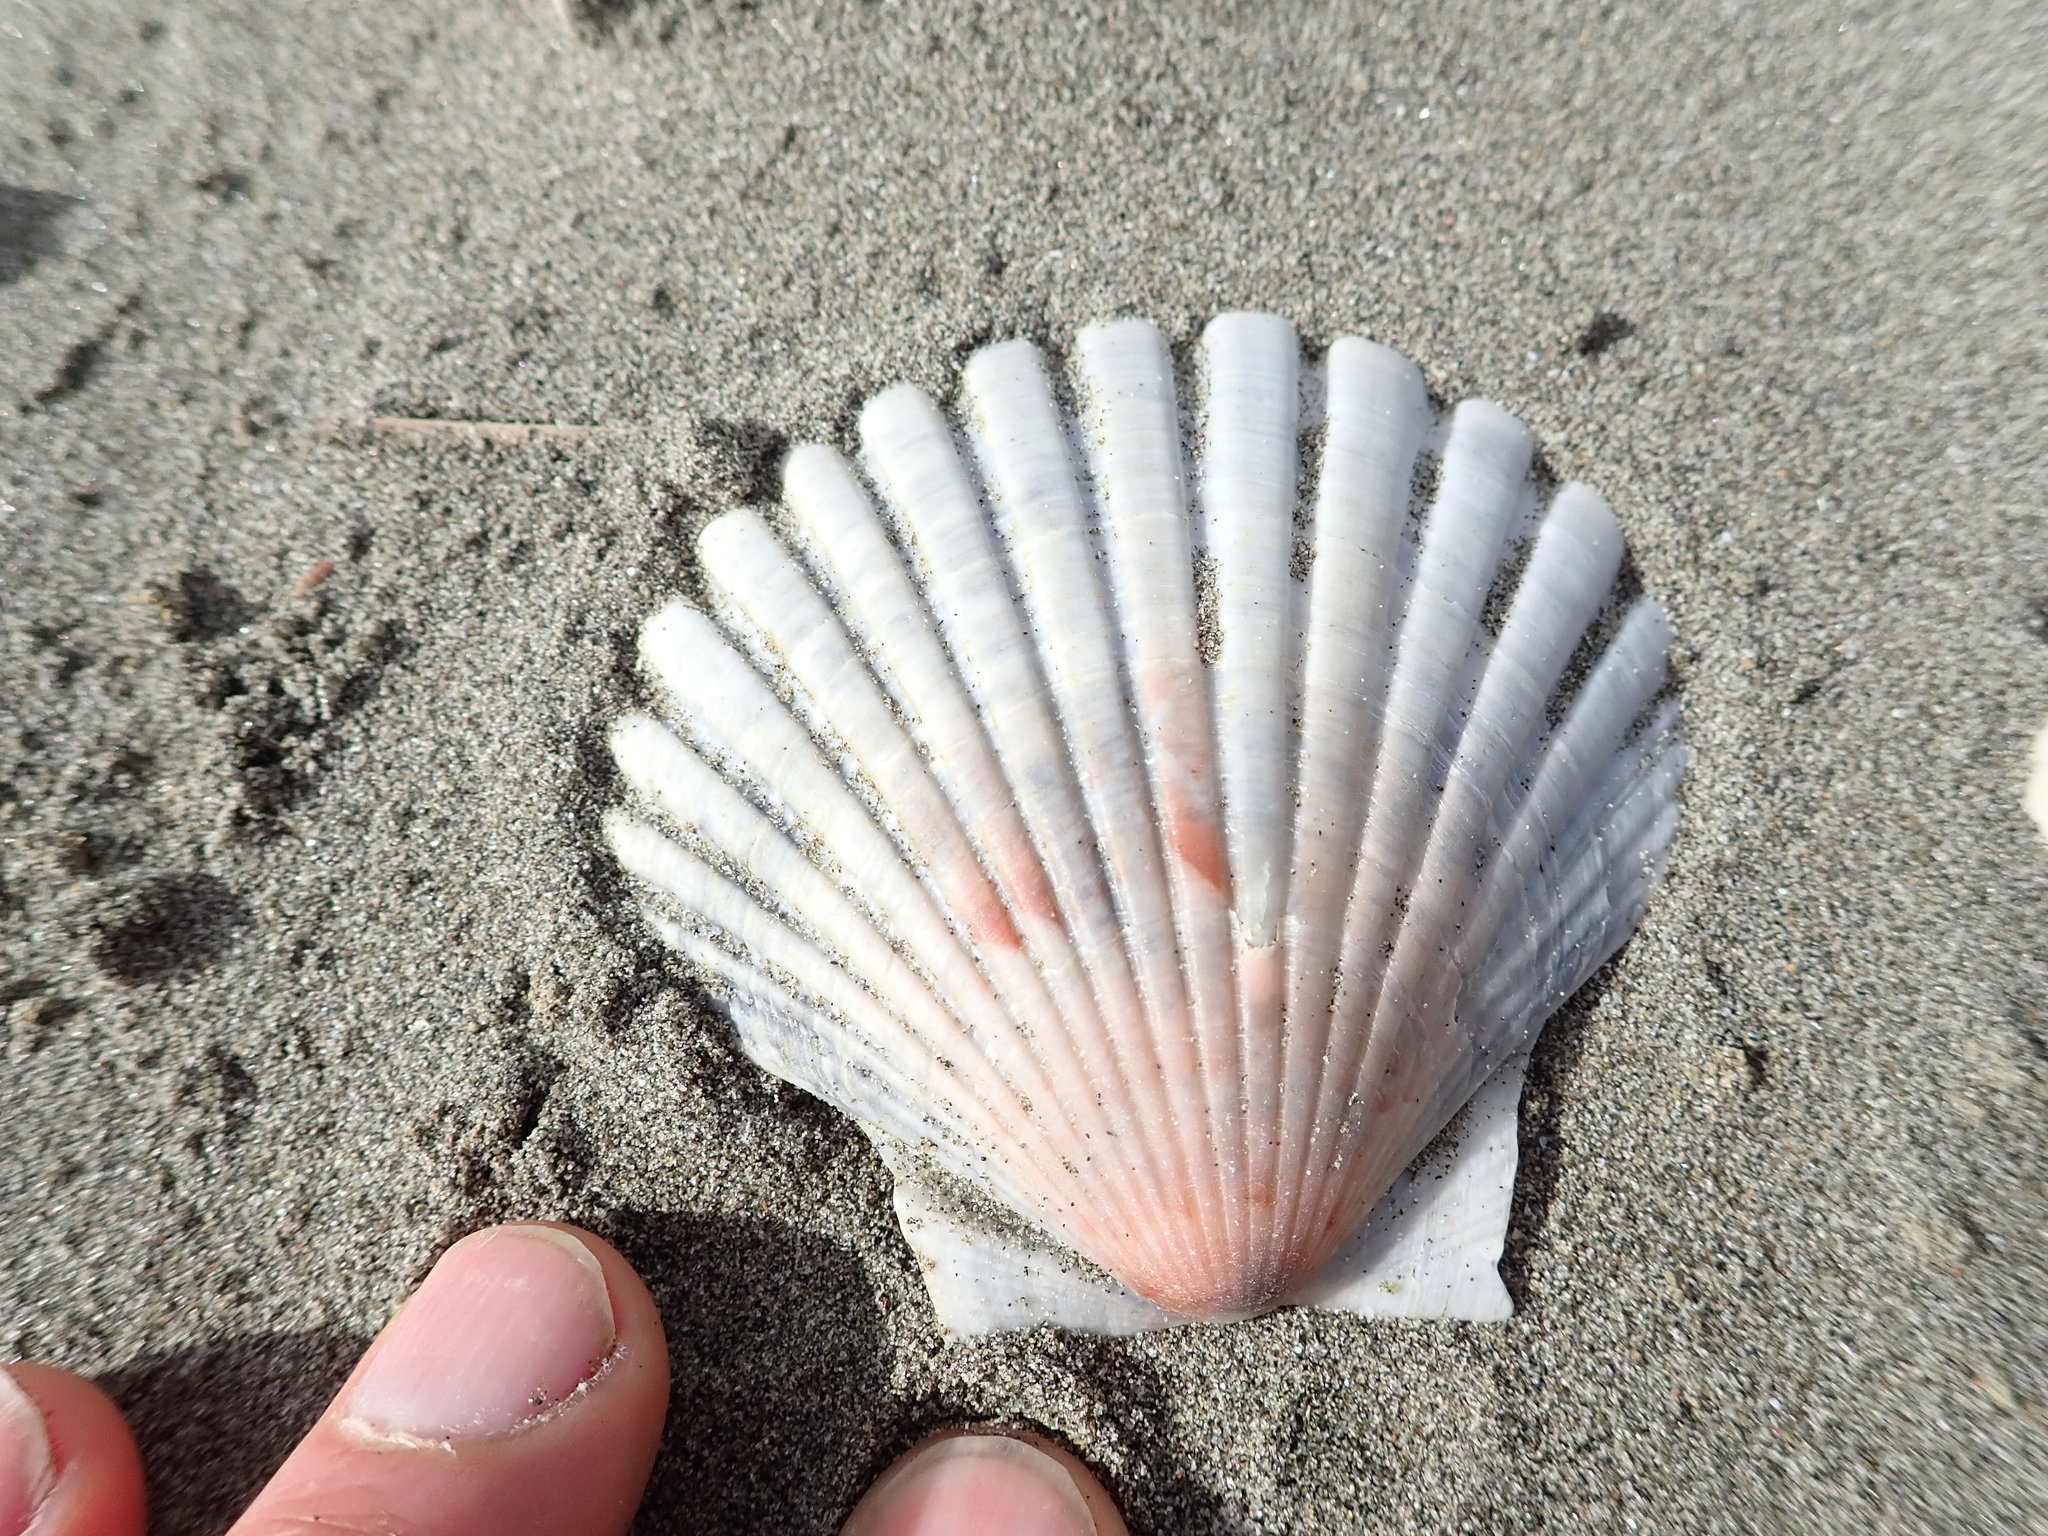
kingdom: Animalia
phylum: Mollusca
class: Bivalvia
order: Pectinida
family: Pectinidae
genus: Pecten
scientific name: Pecten novaezelandiae
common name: New zealand scallop
